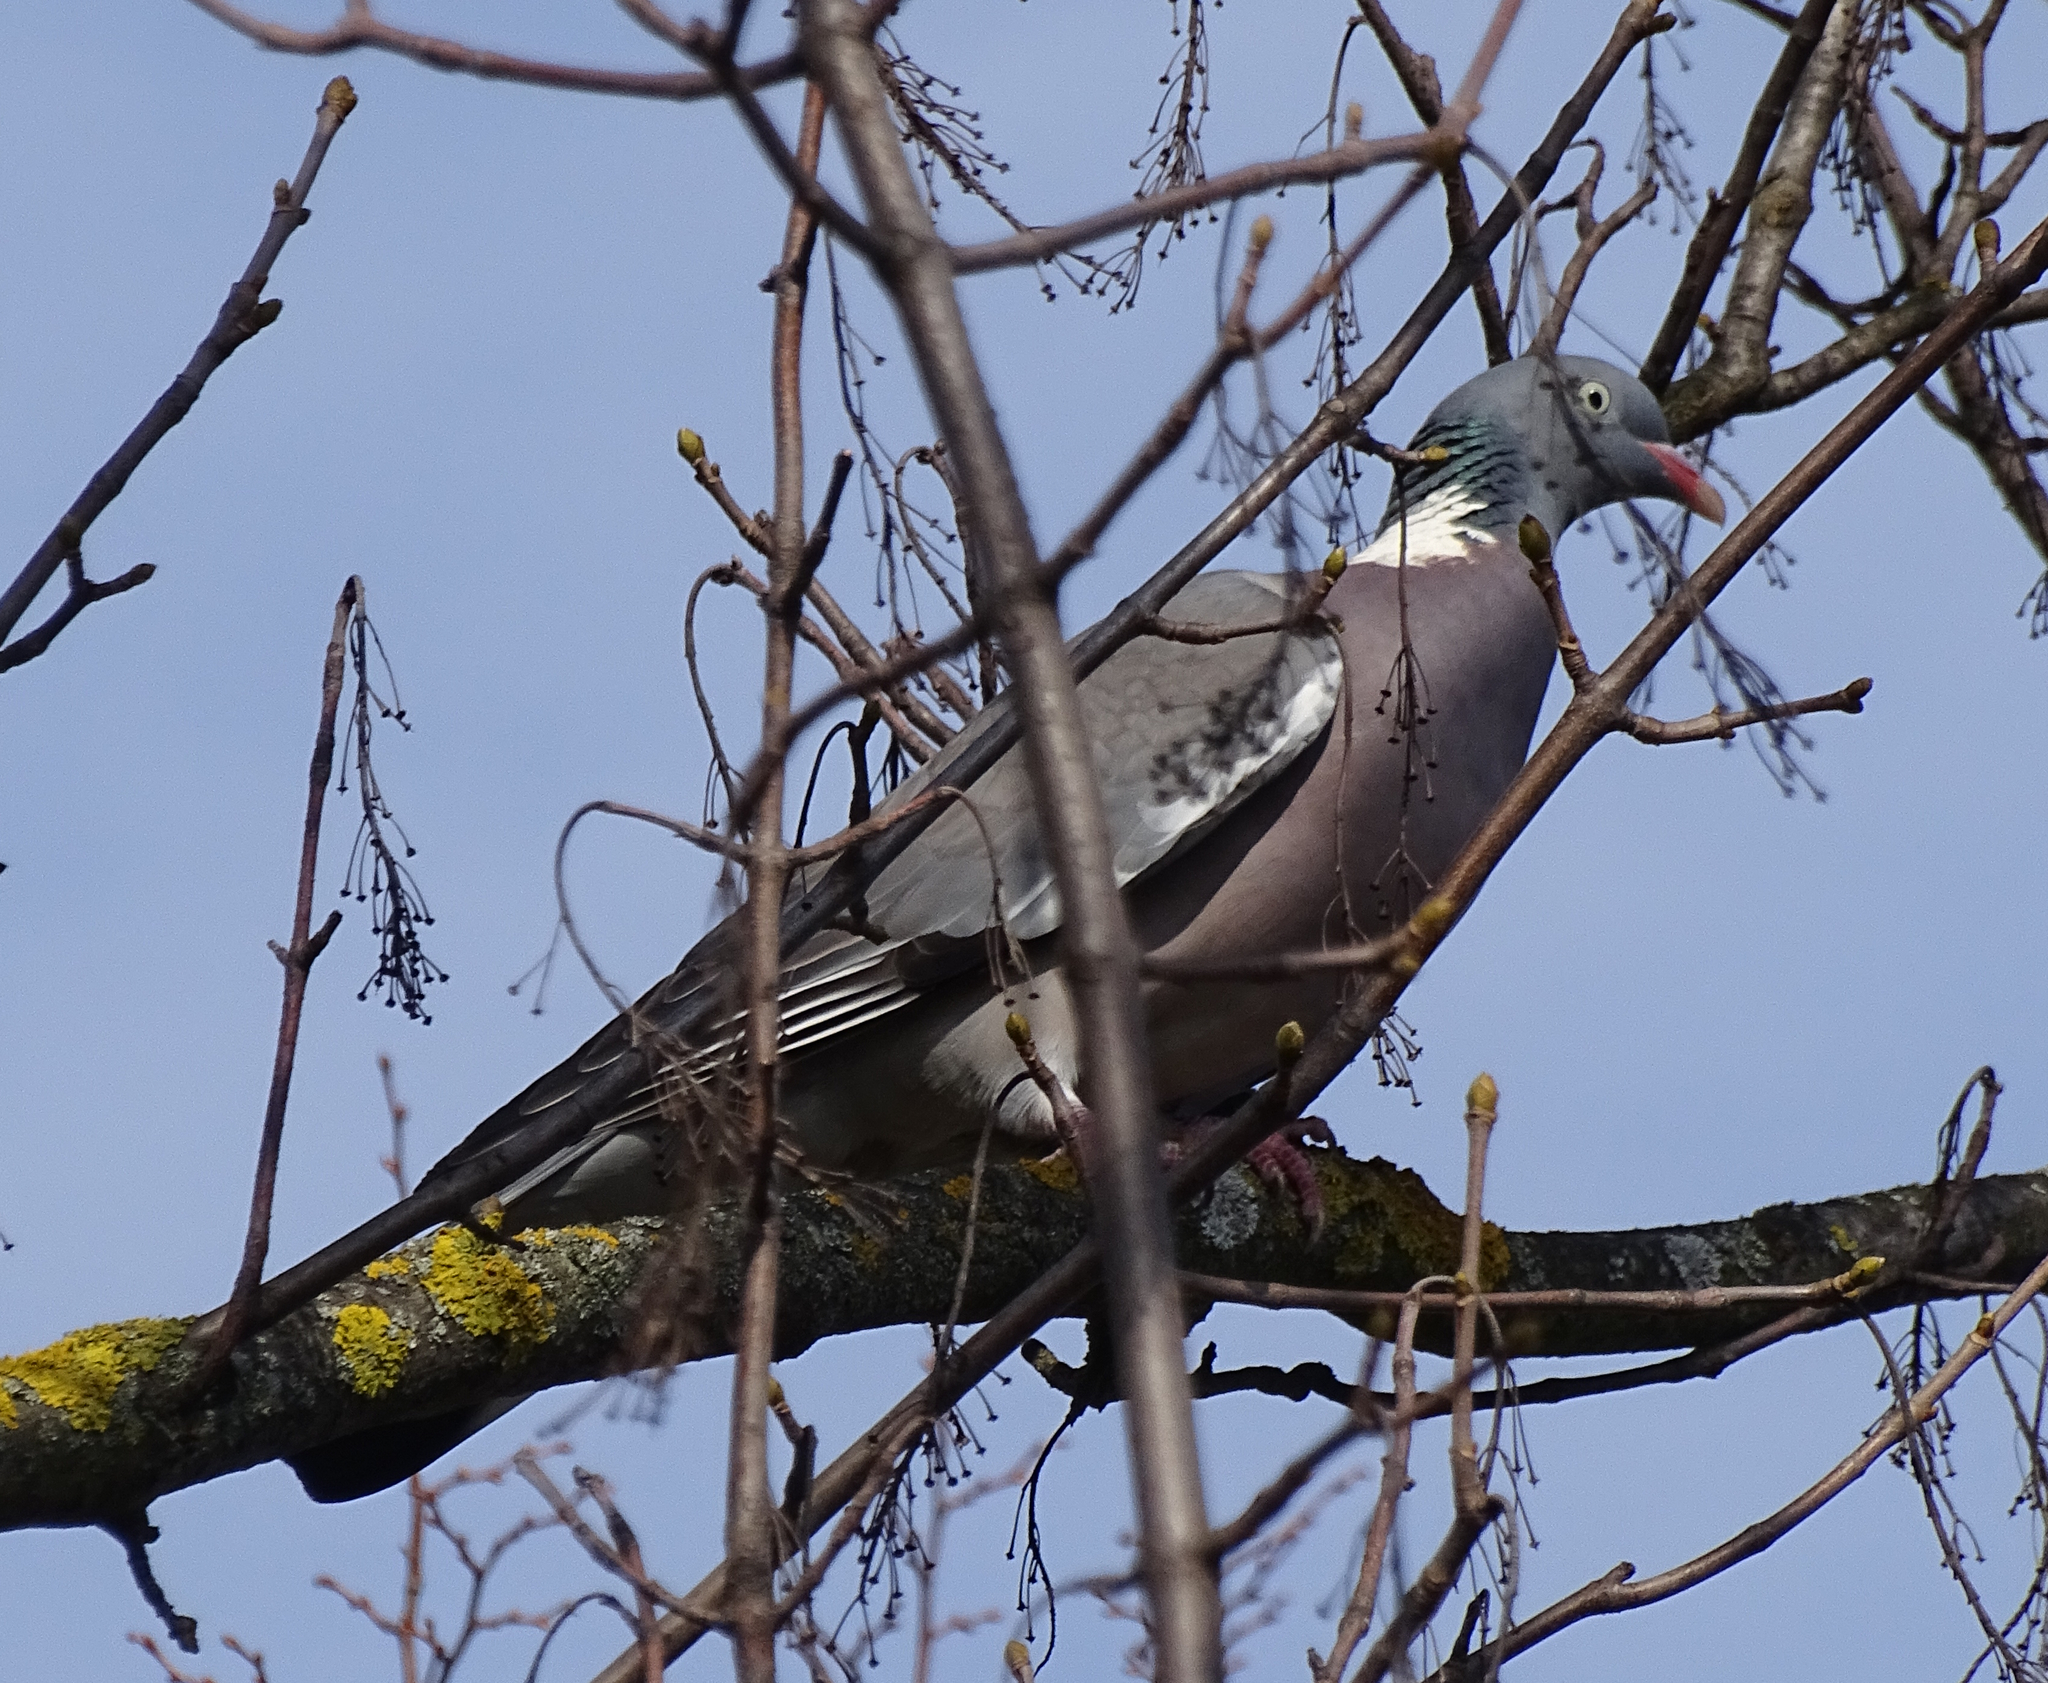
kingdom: Animalia
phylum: Chordata
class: Aves
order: Columbiformes
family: Columbidae
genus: Columba
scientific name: Columba palumbus
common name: Common wood pigeon
